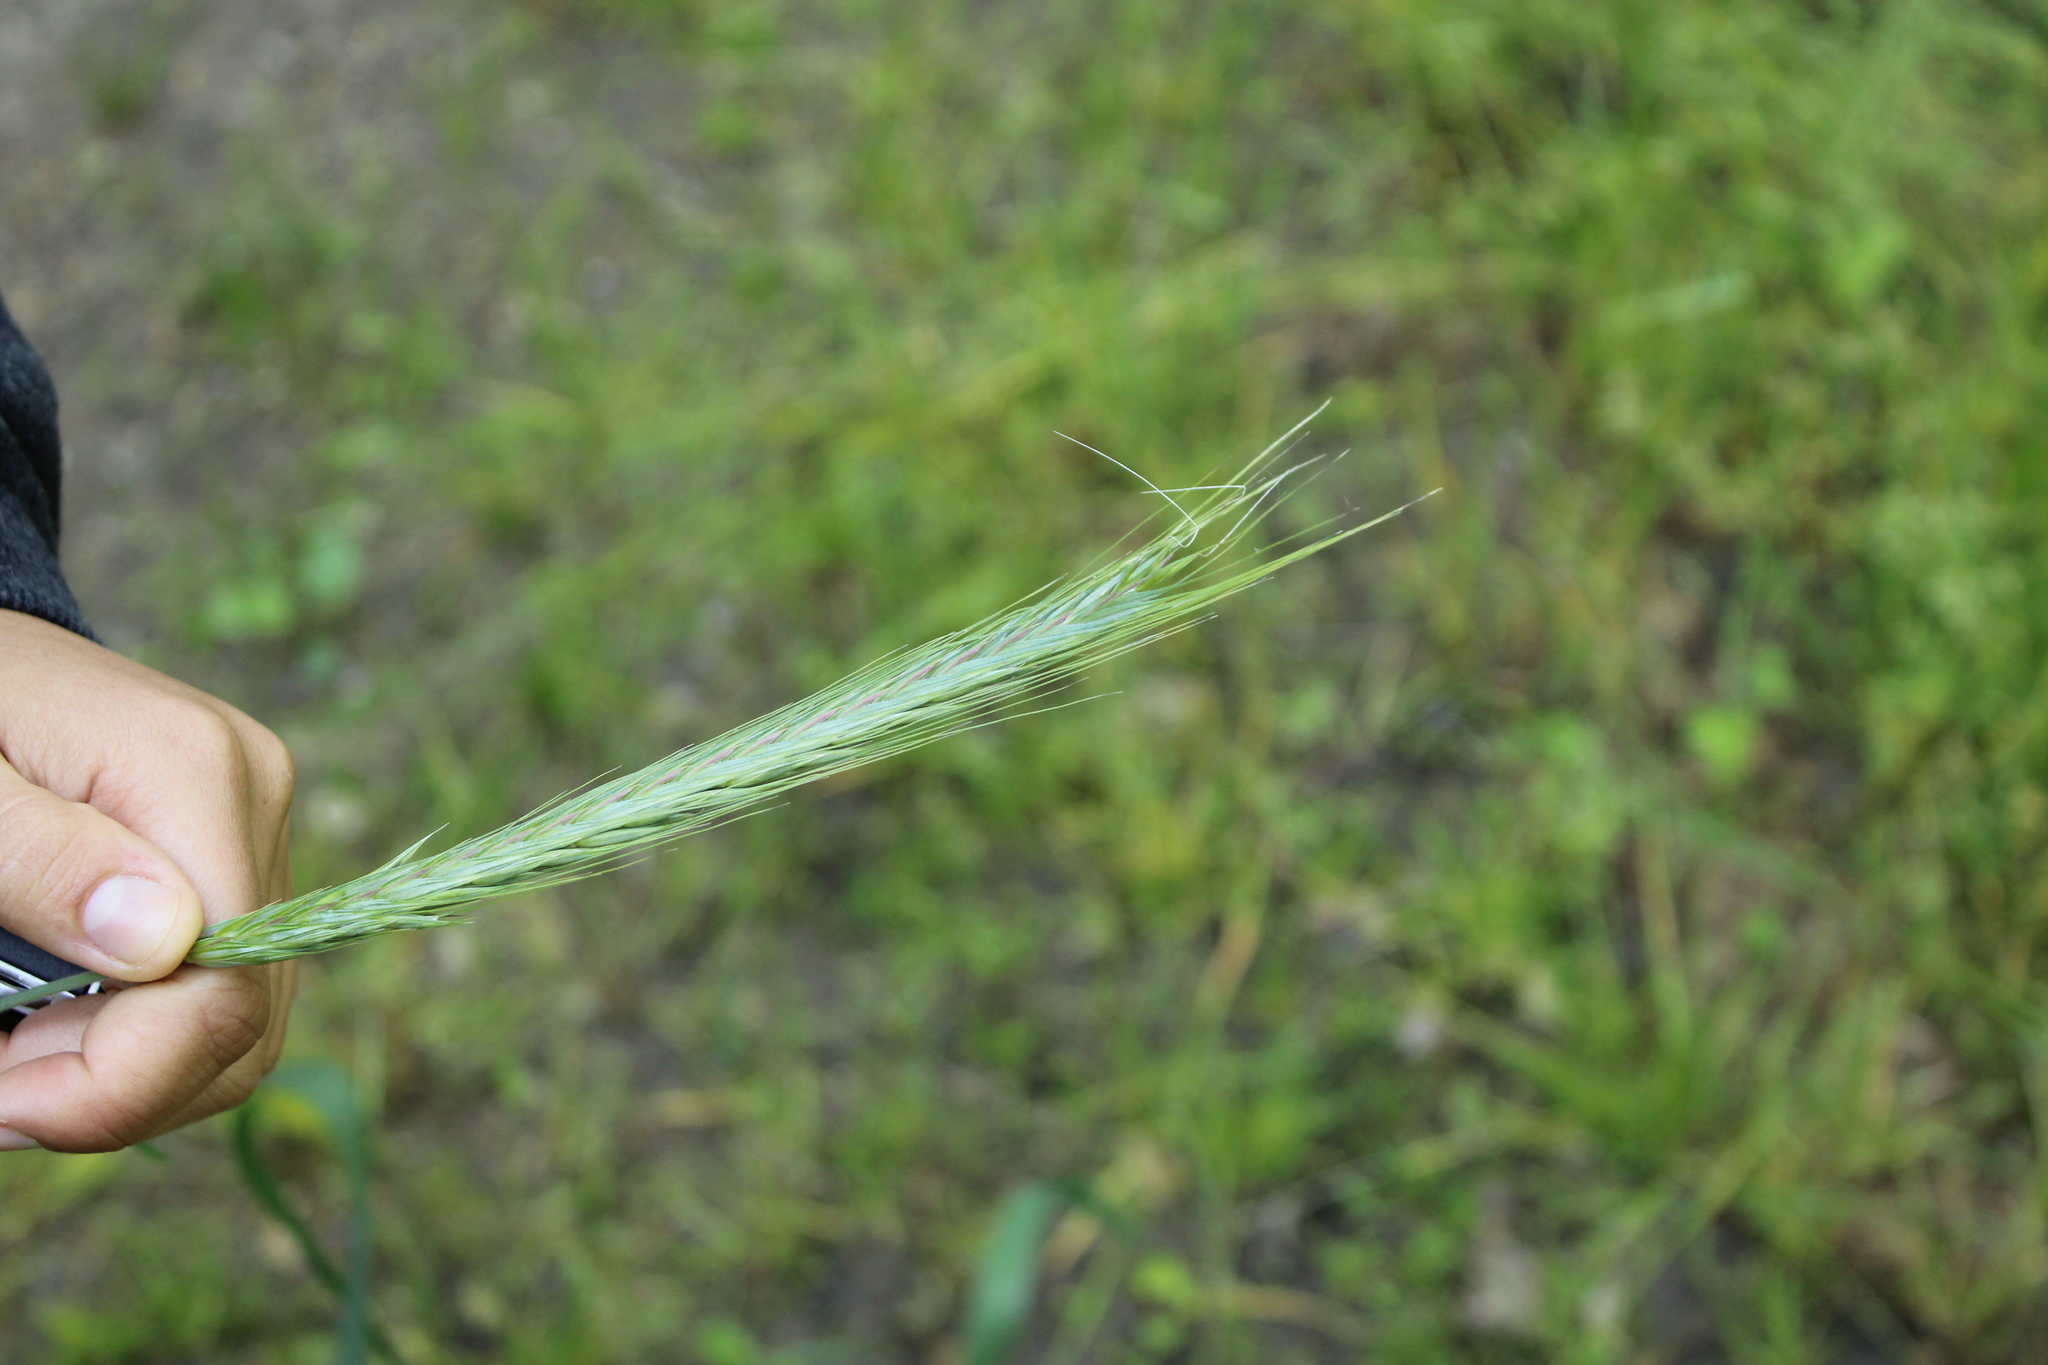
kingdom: Plantae
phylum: Tracheophyta
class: Liliopsida
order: Poales
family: Poaceae
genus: Secale
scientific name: Secale cereale
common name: Rye
